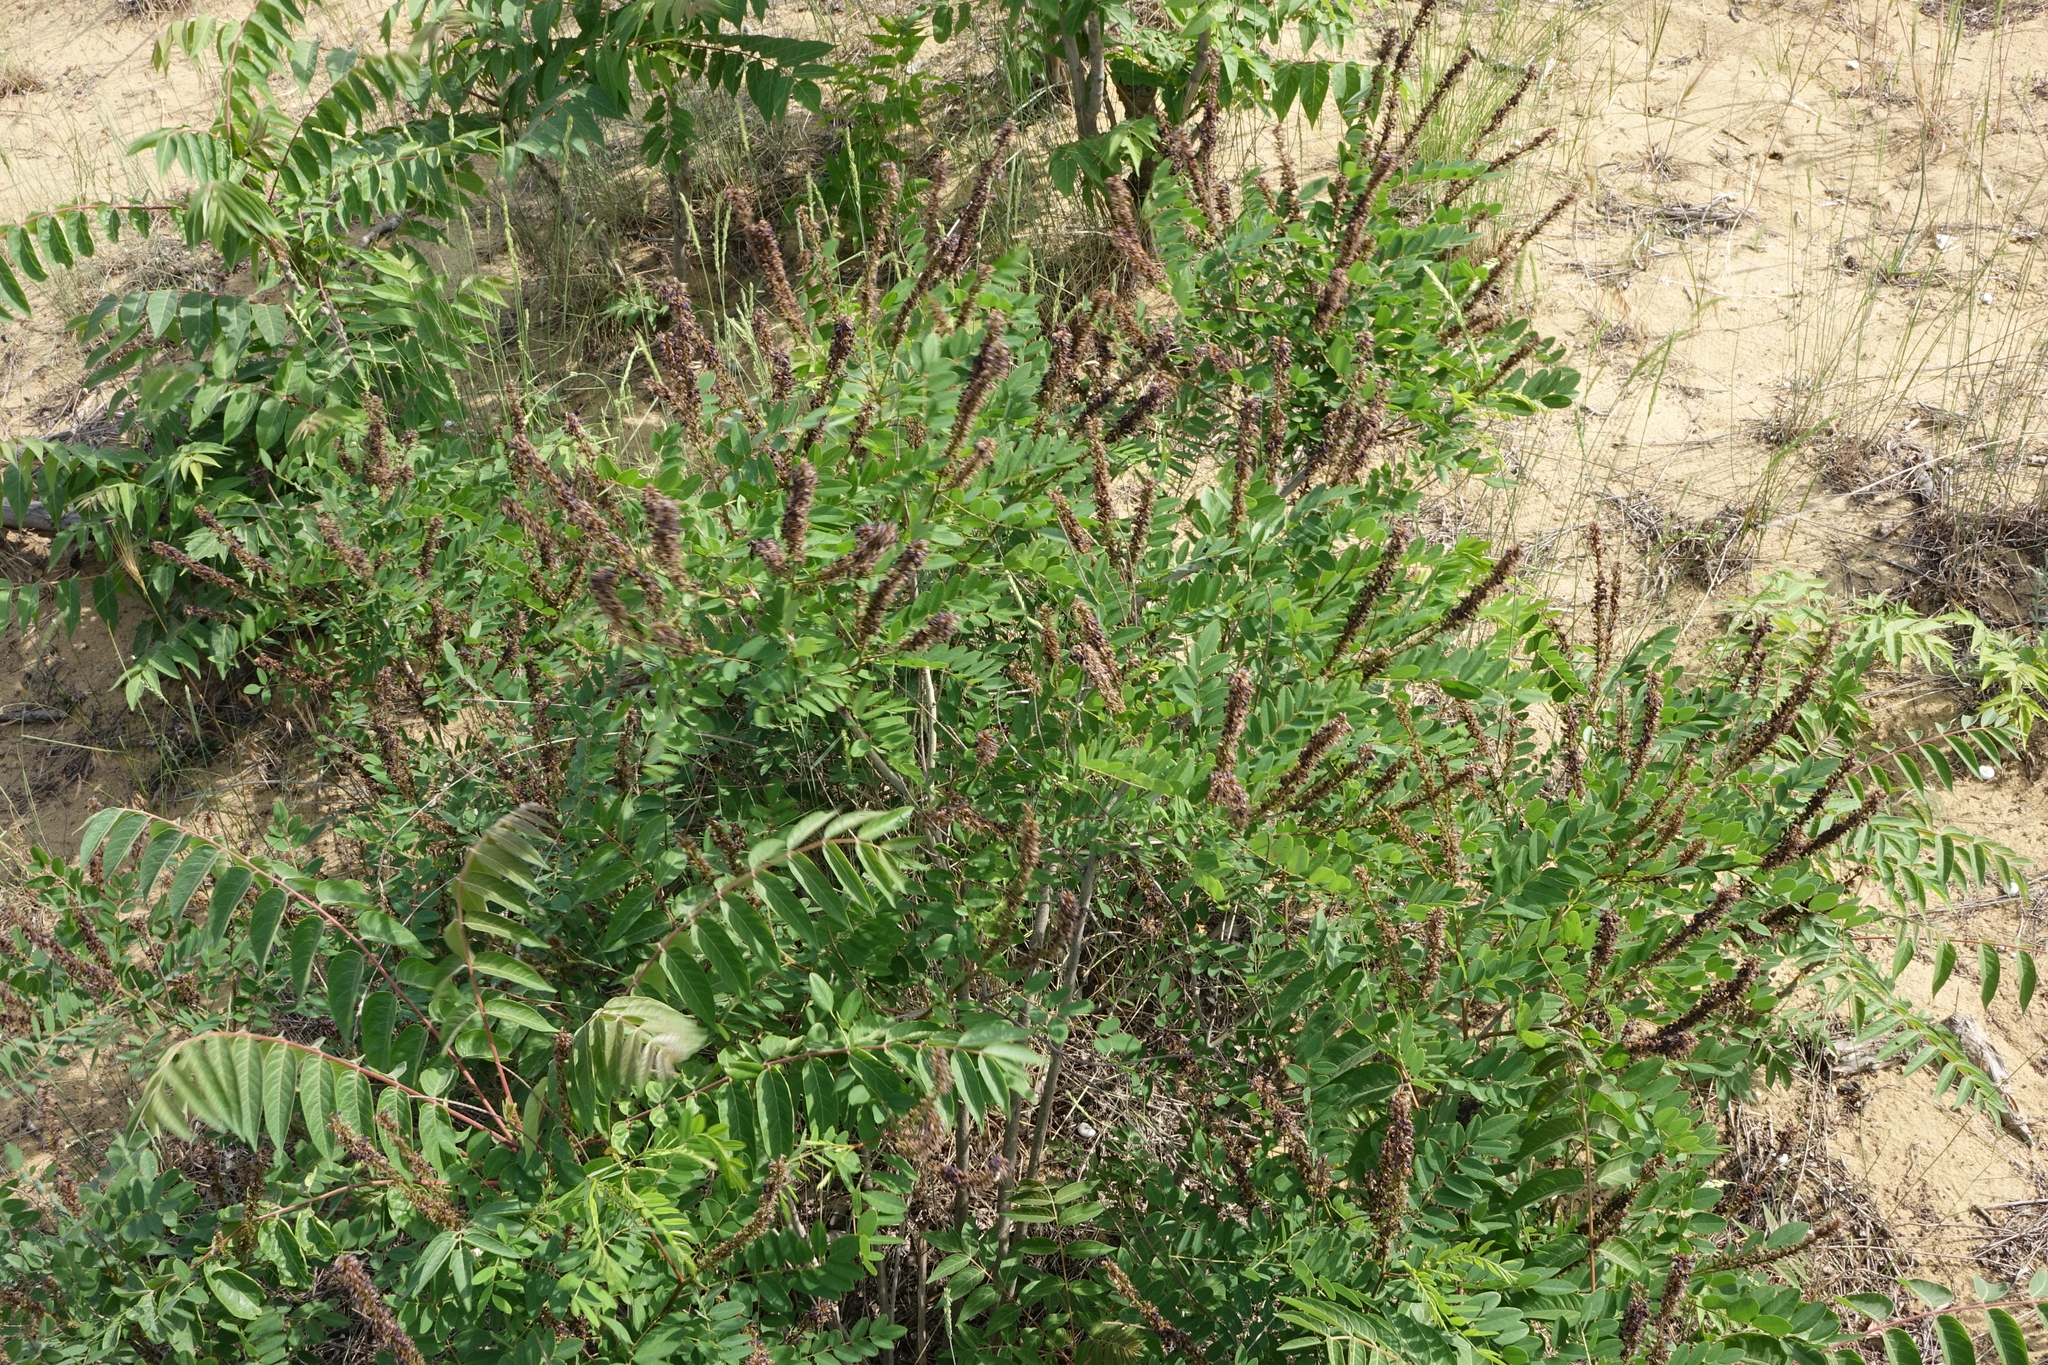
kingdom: Plantae
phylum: Tracheophyta
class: Magnoliopsida
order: Fabales
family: Fabaceae
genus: Amorpha
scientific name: Amorpha fruticosa
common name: False indigo
